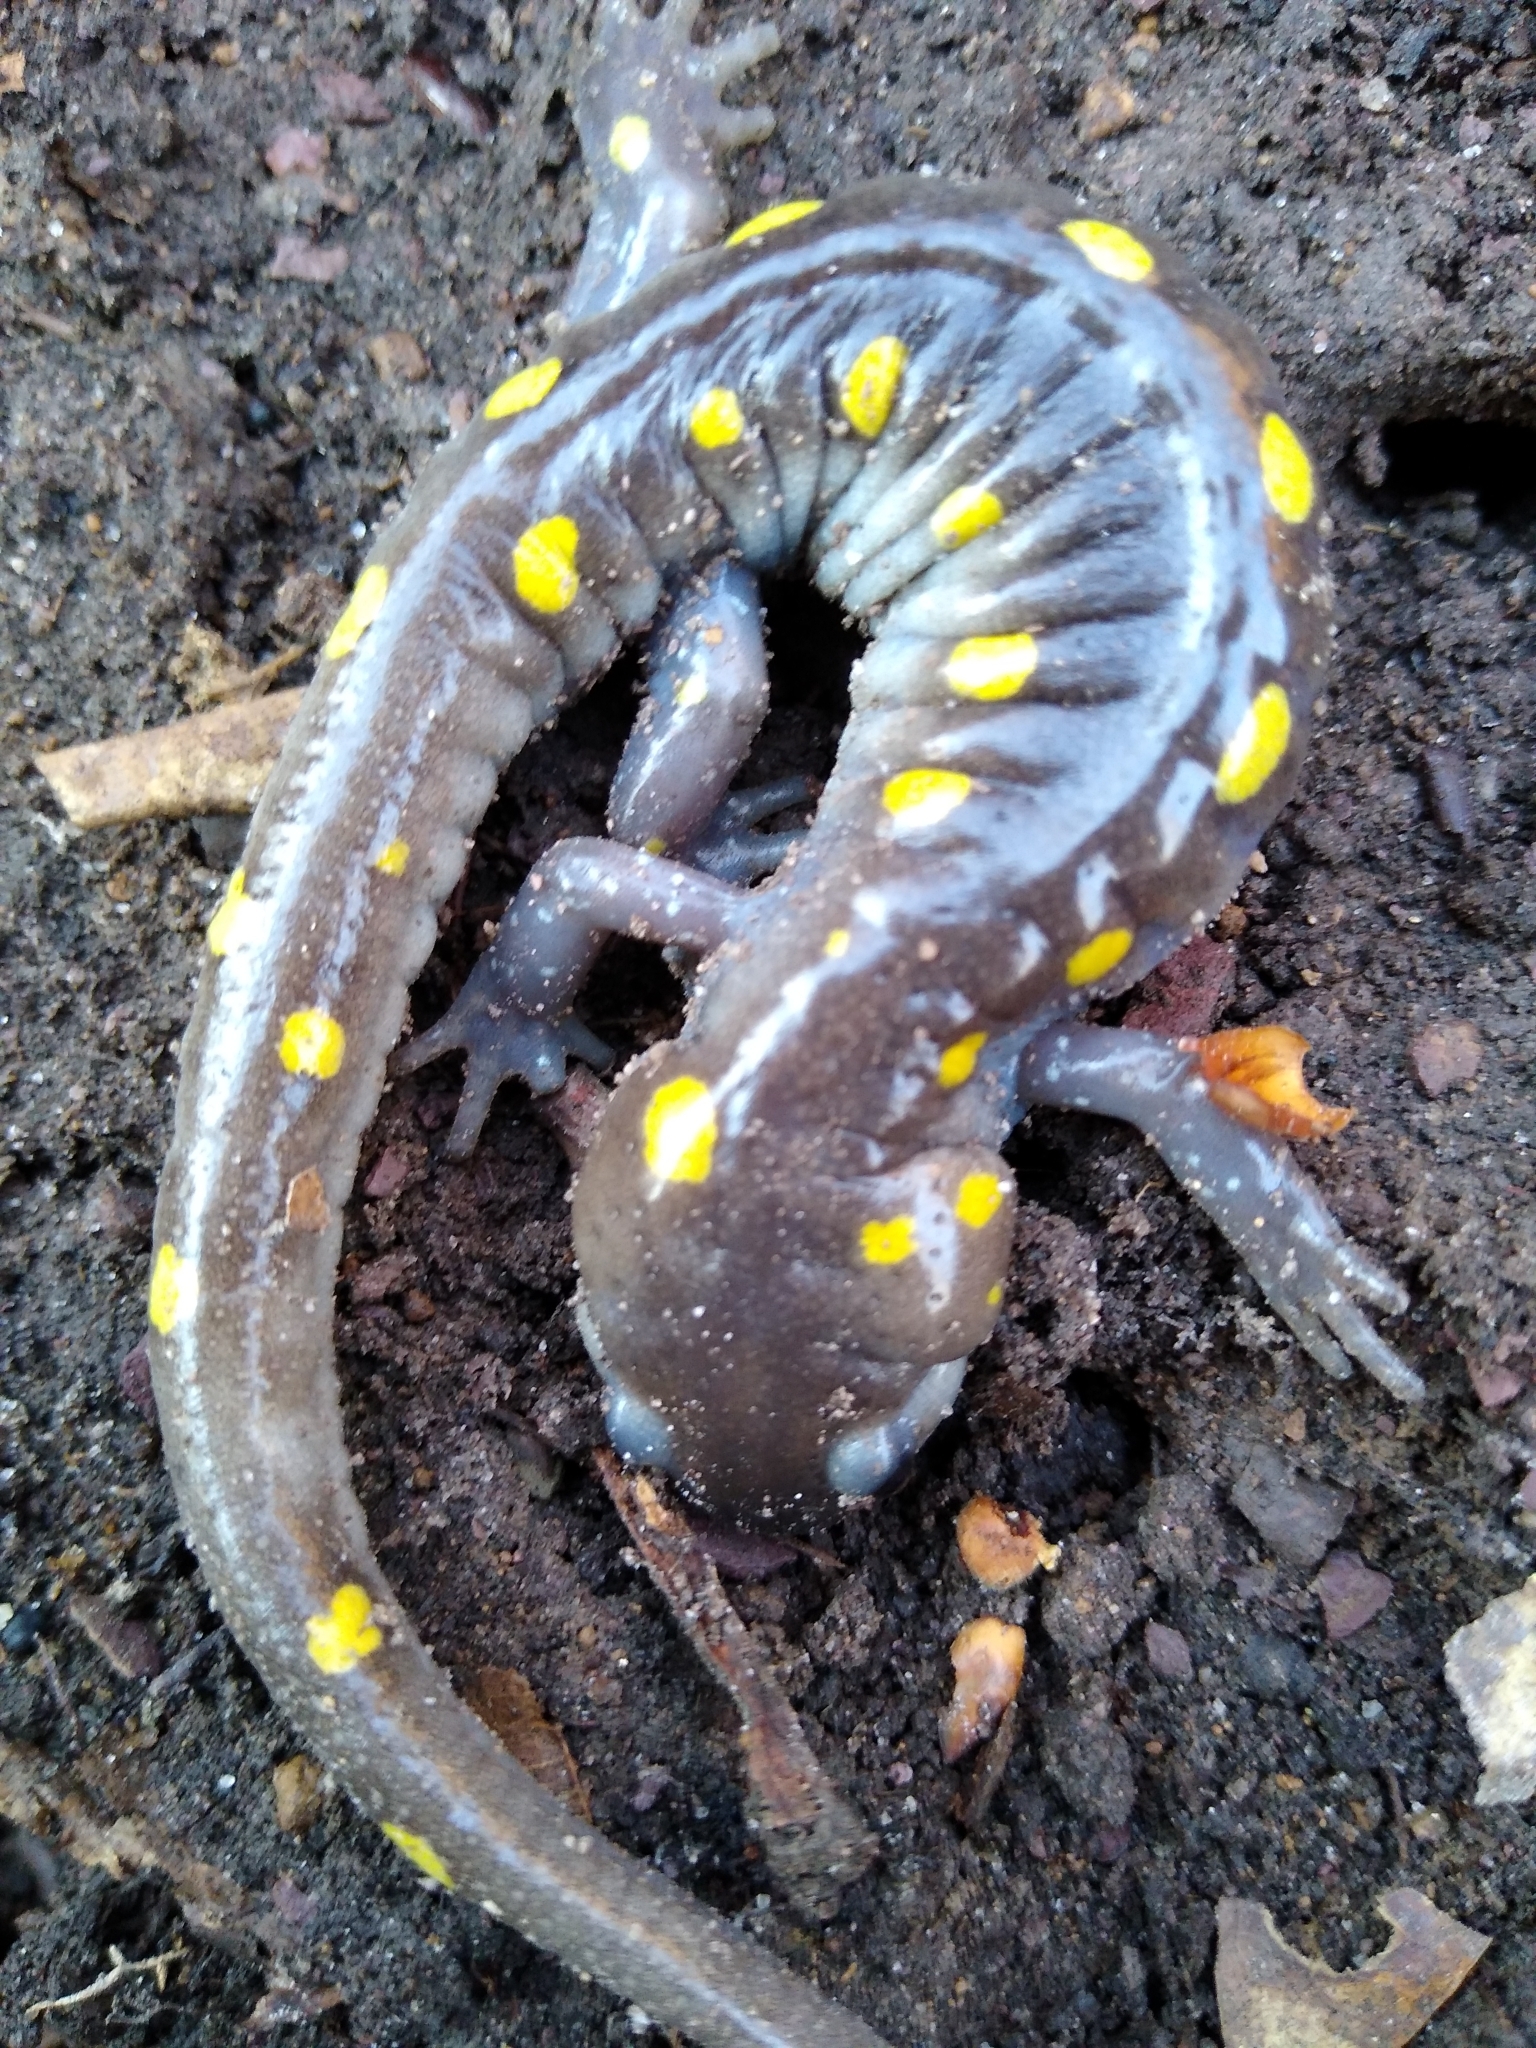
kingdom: Animalia
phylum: Chordata
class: Amphibia
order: Caudata
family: Ambystomatidae
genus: Ambystoma
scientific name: Ambystoma maculatum
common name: Spotted salamander
